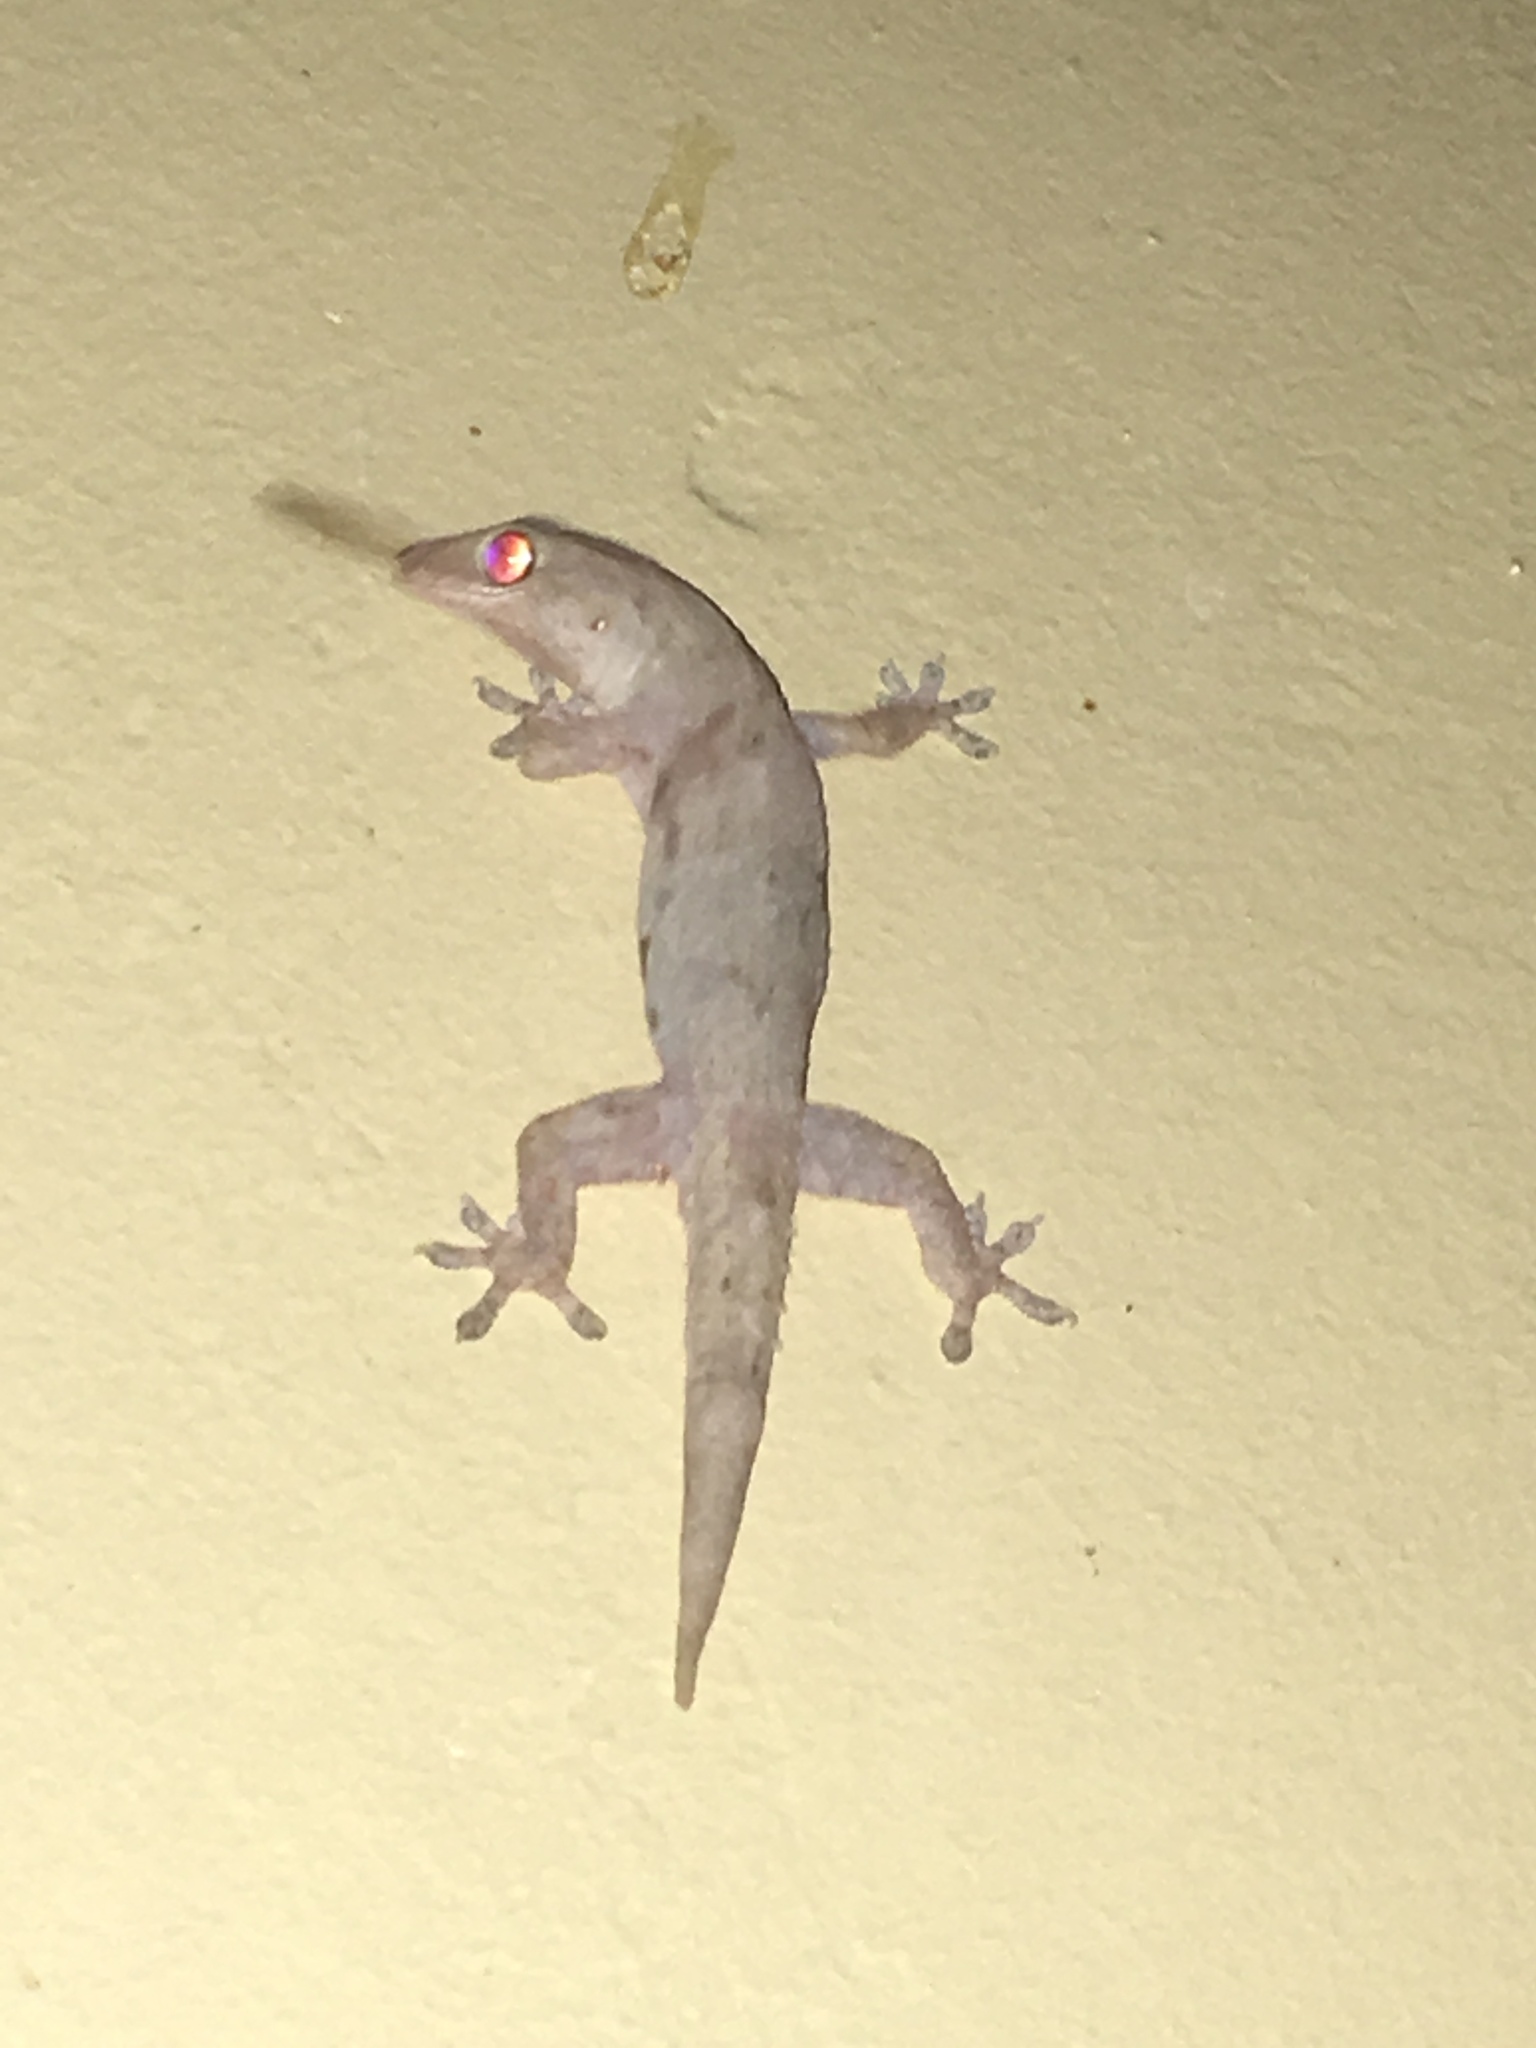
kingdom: Animalia
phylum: Chordata
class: Squamata
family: Gekkonidae
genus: Hemidactylus
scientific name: Hemidactylus mabouia
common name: House gecko
